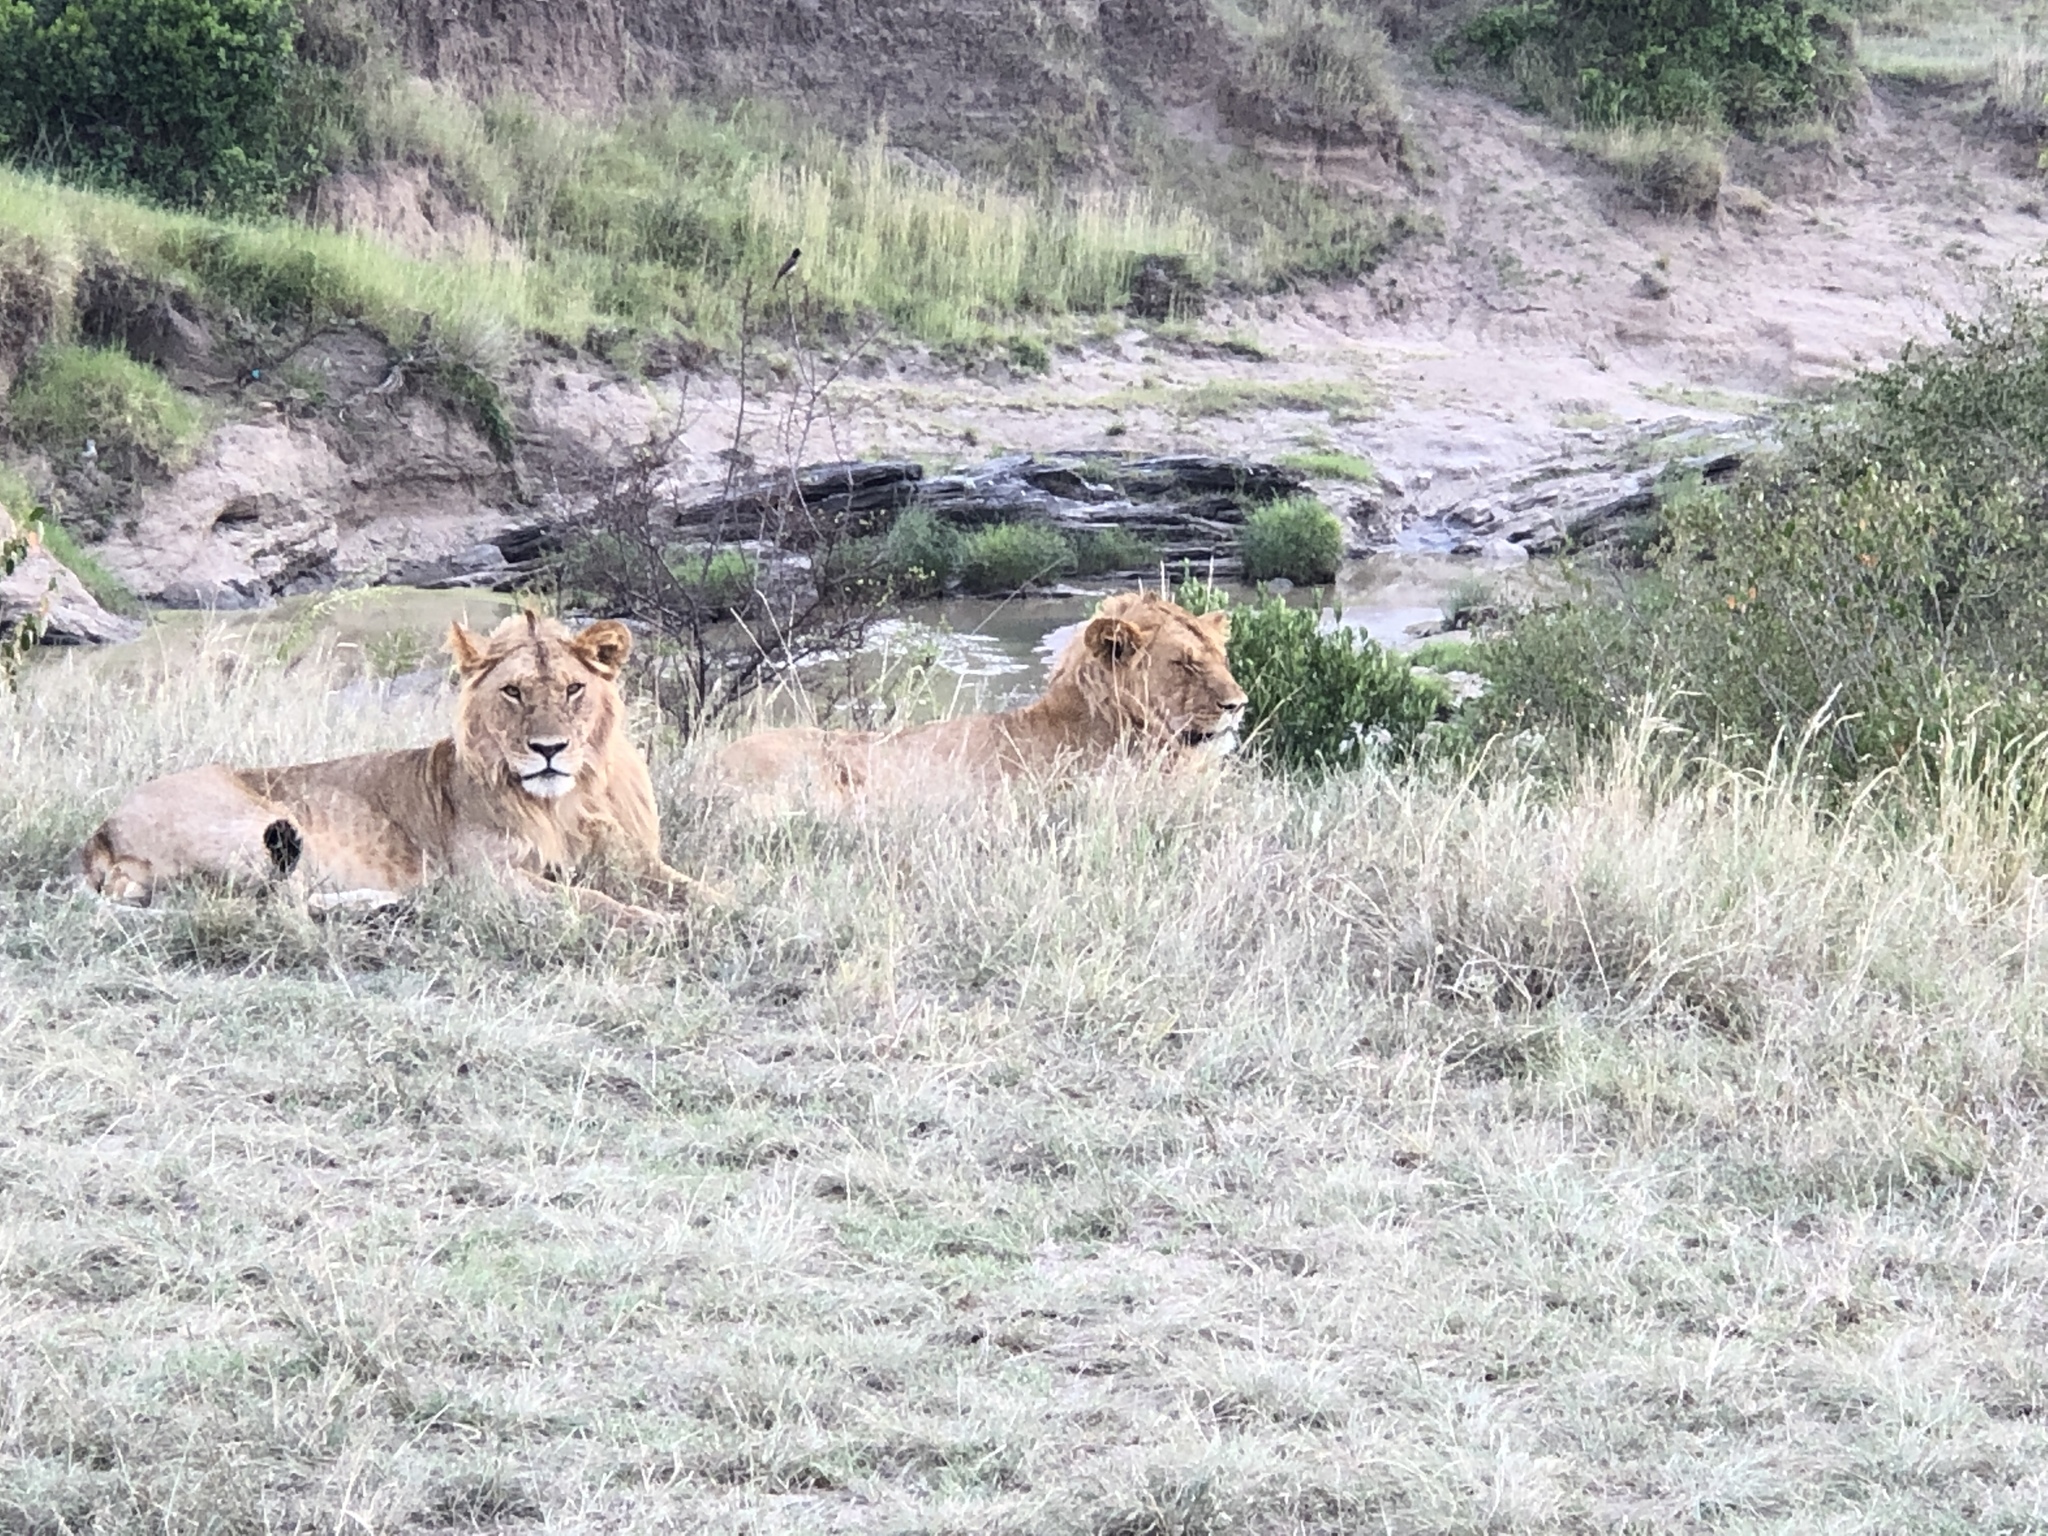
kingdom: Animalia
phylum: Chordata
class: Mammalia
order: Carnivora
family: Felidae
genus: Panthera
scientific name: Panthera leo
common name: Lion
